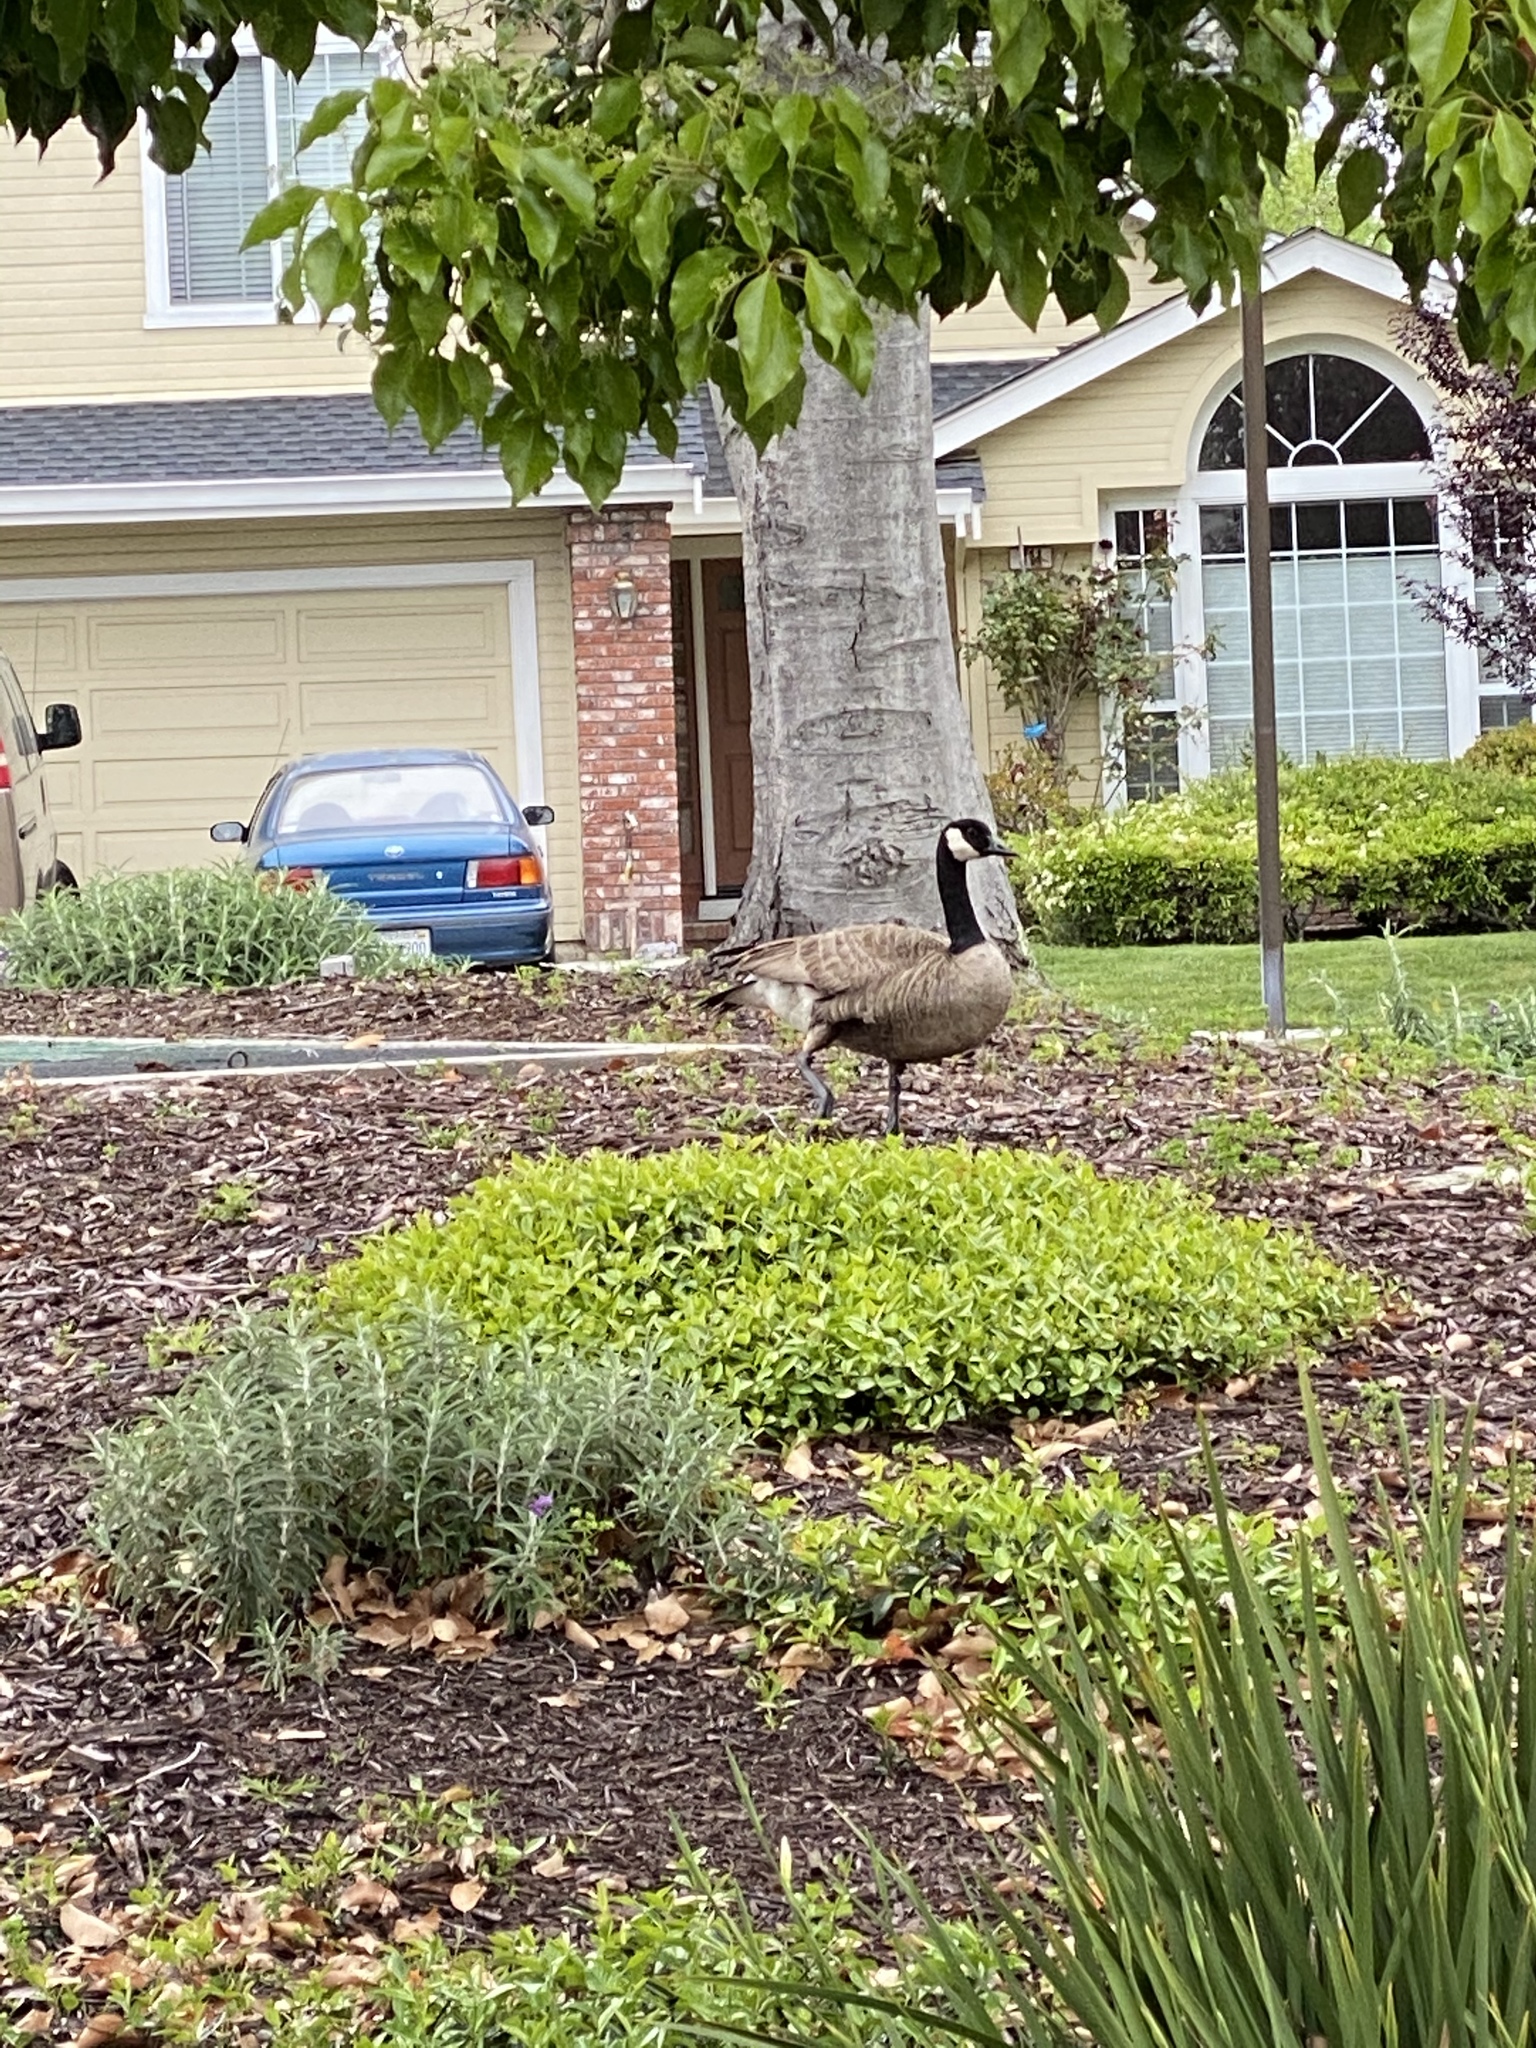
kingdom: Animalia
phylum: Chordata
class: Aves
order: Anseriformes
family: Anatidae
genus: Branta
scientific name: Branta canadensis
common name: Canada goose
